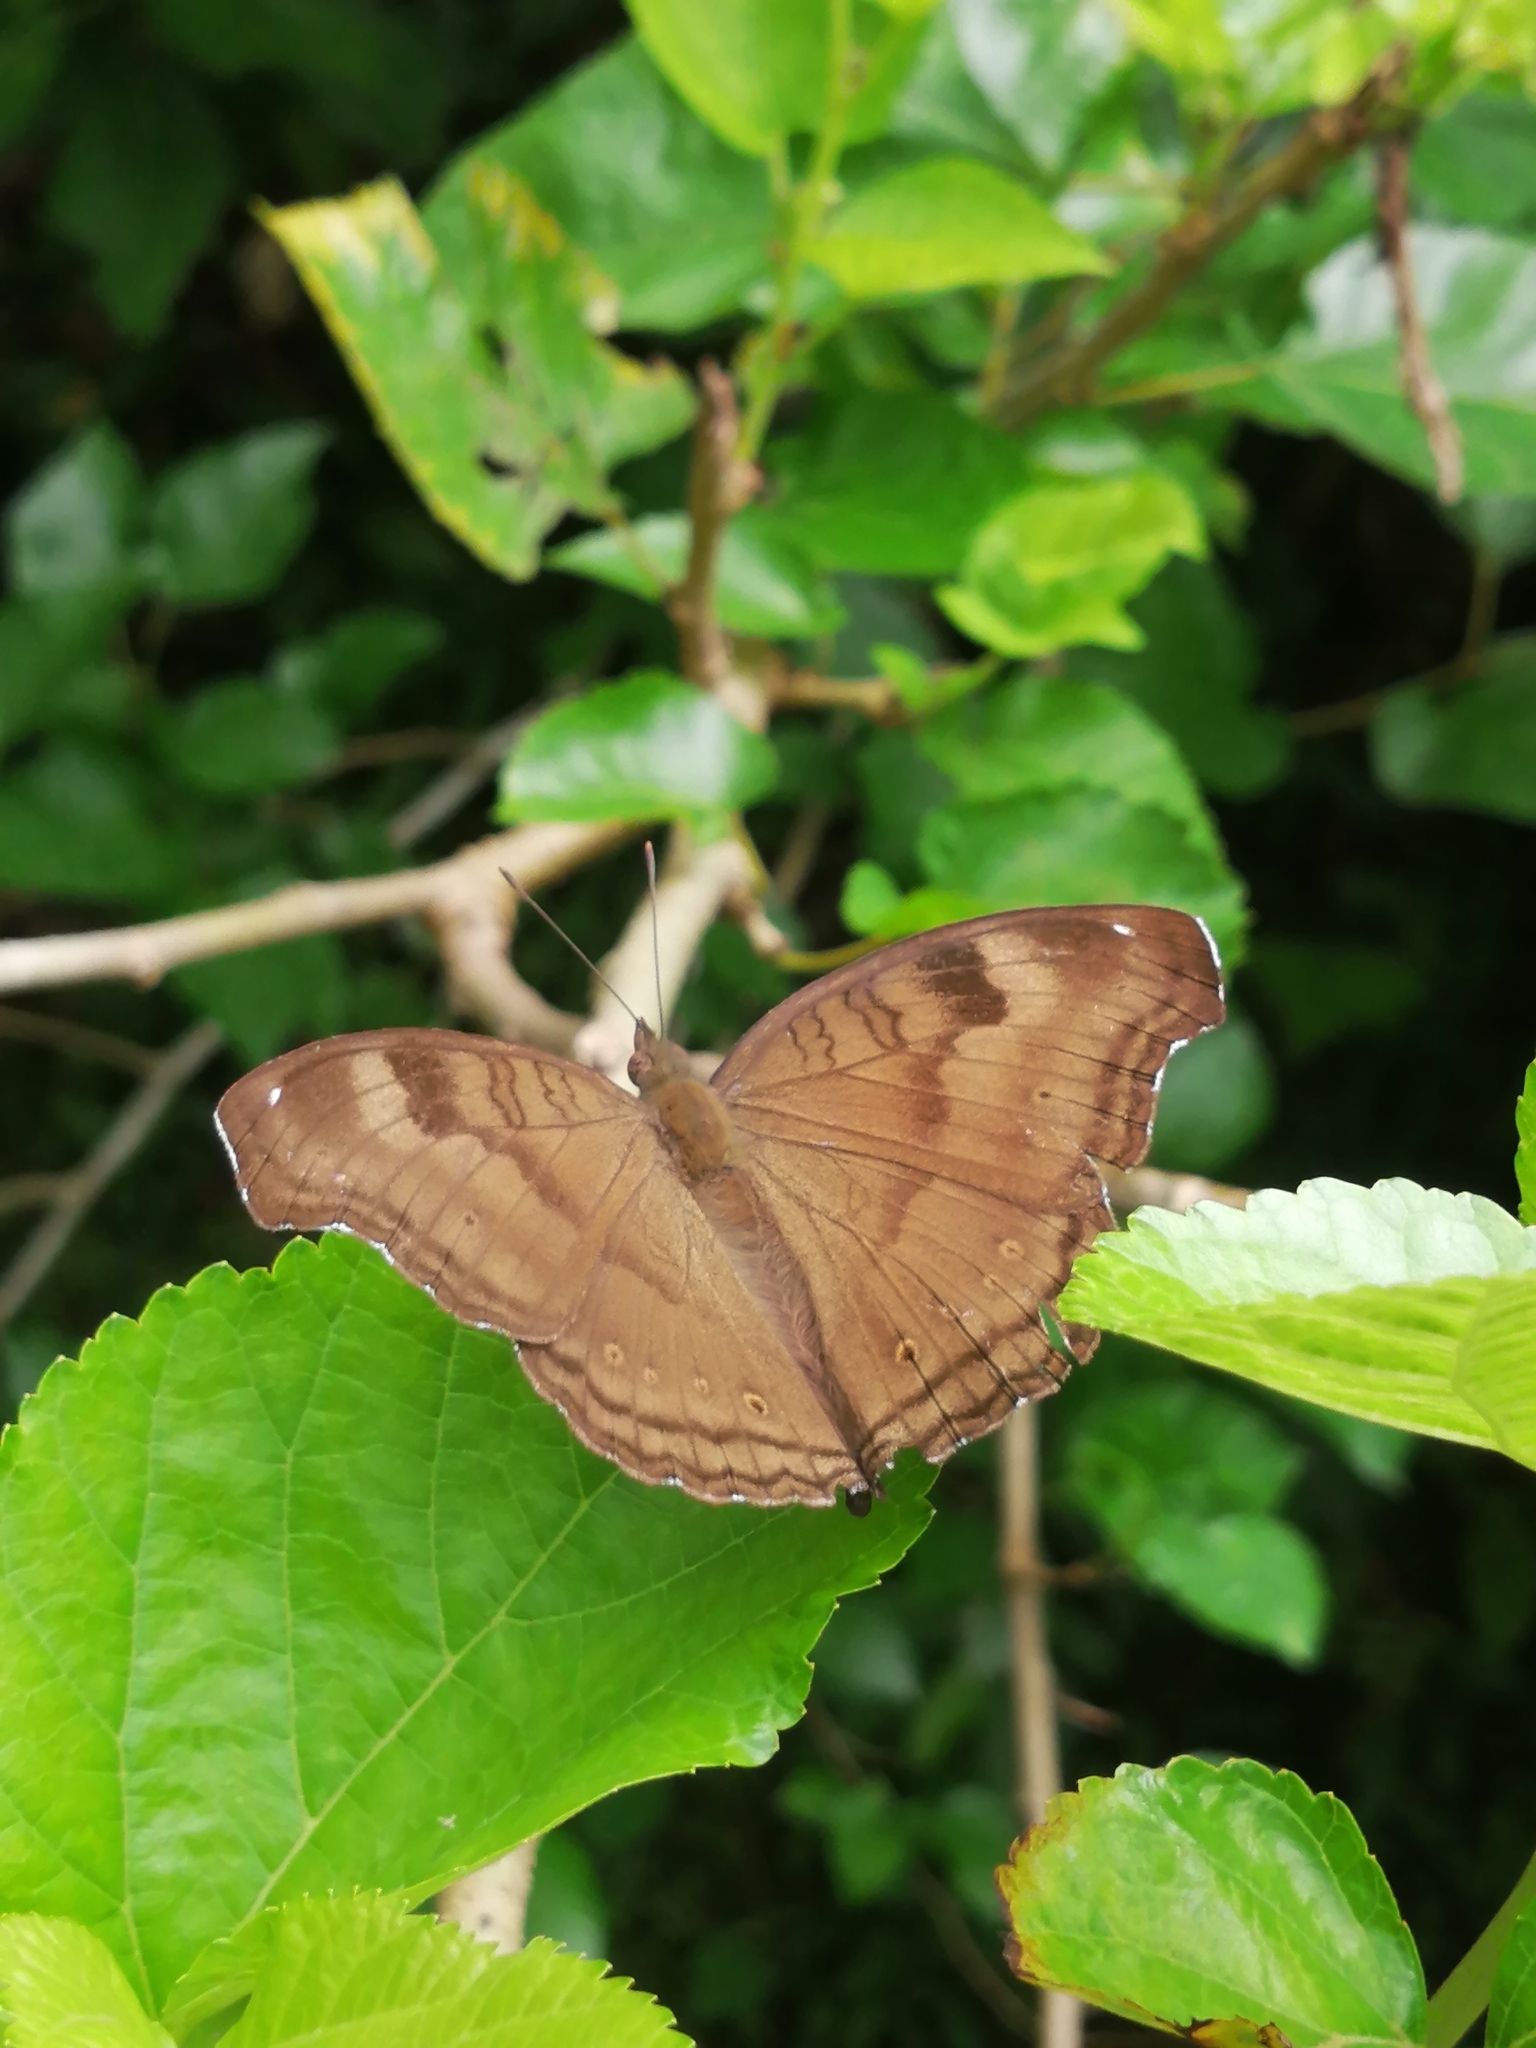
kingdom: Animalia
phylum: Arthropoda
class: Insecta
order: Lepidoptera
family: Nymphalidae
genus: Junonia
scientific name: Junonia iphita
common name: Chocolate pansy
